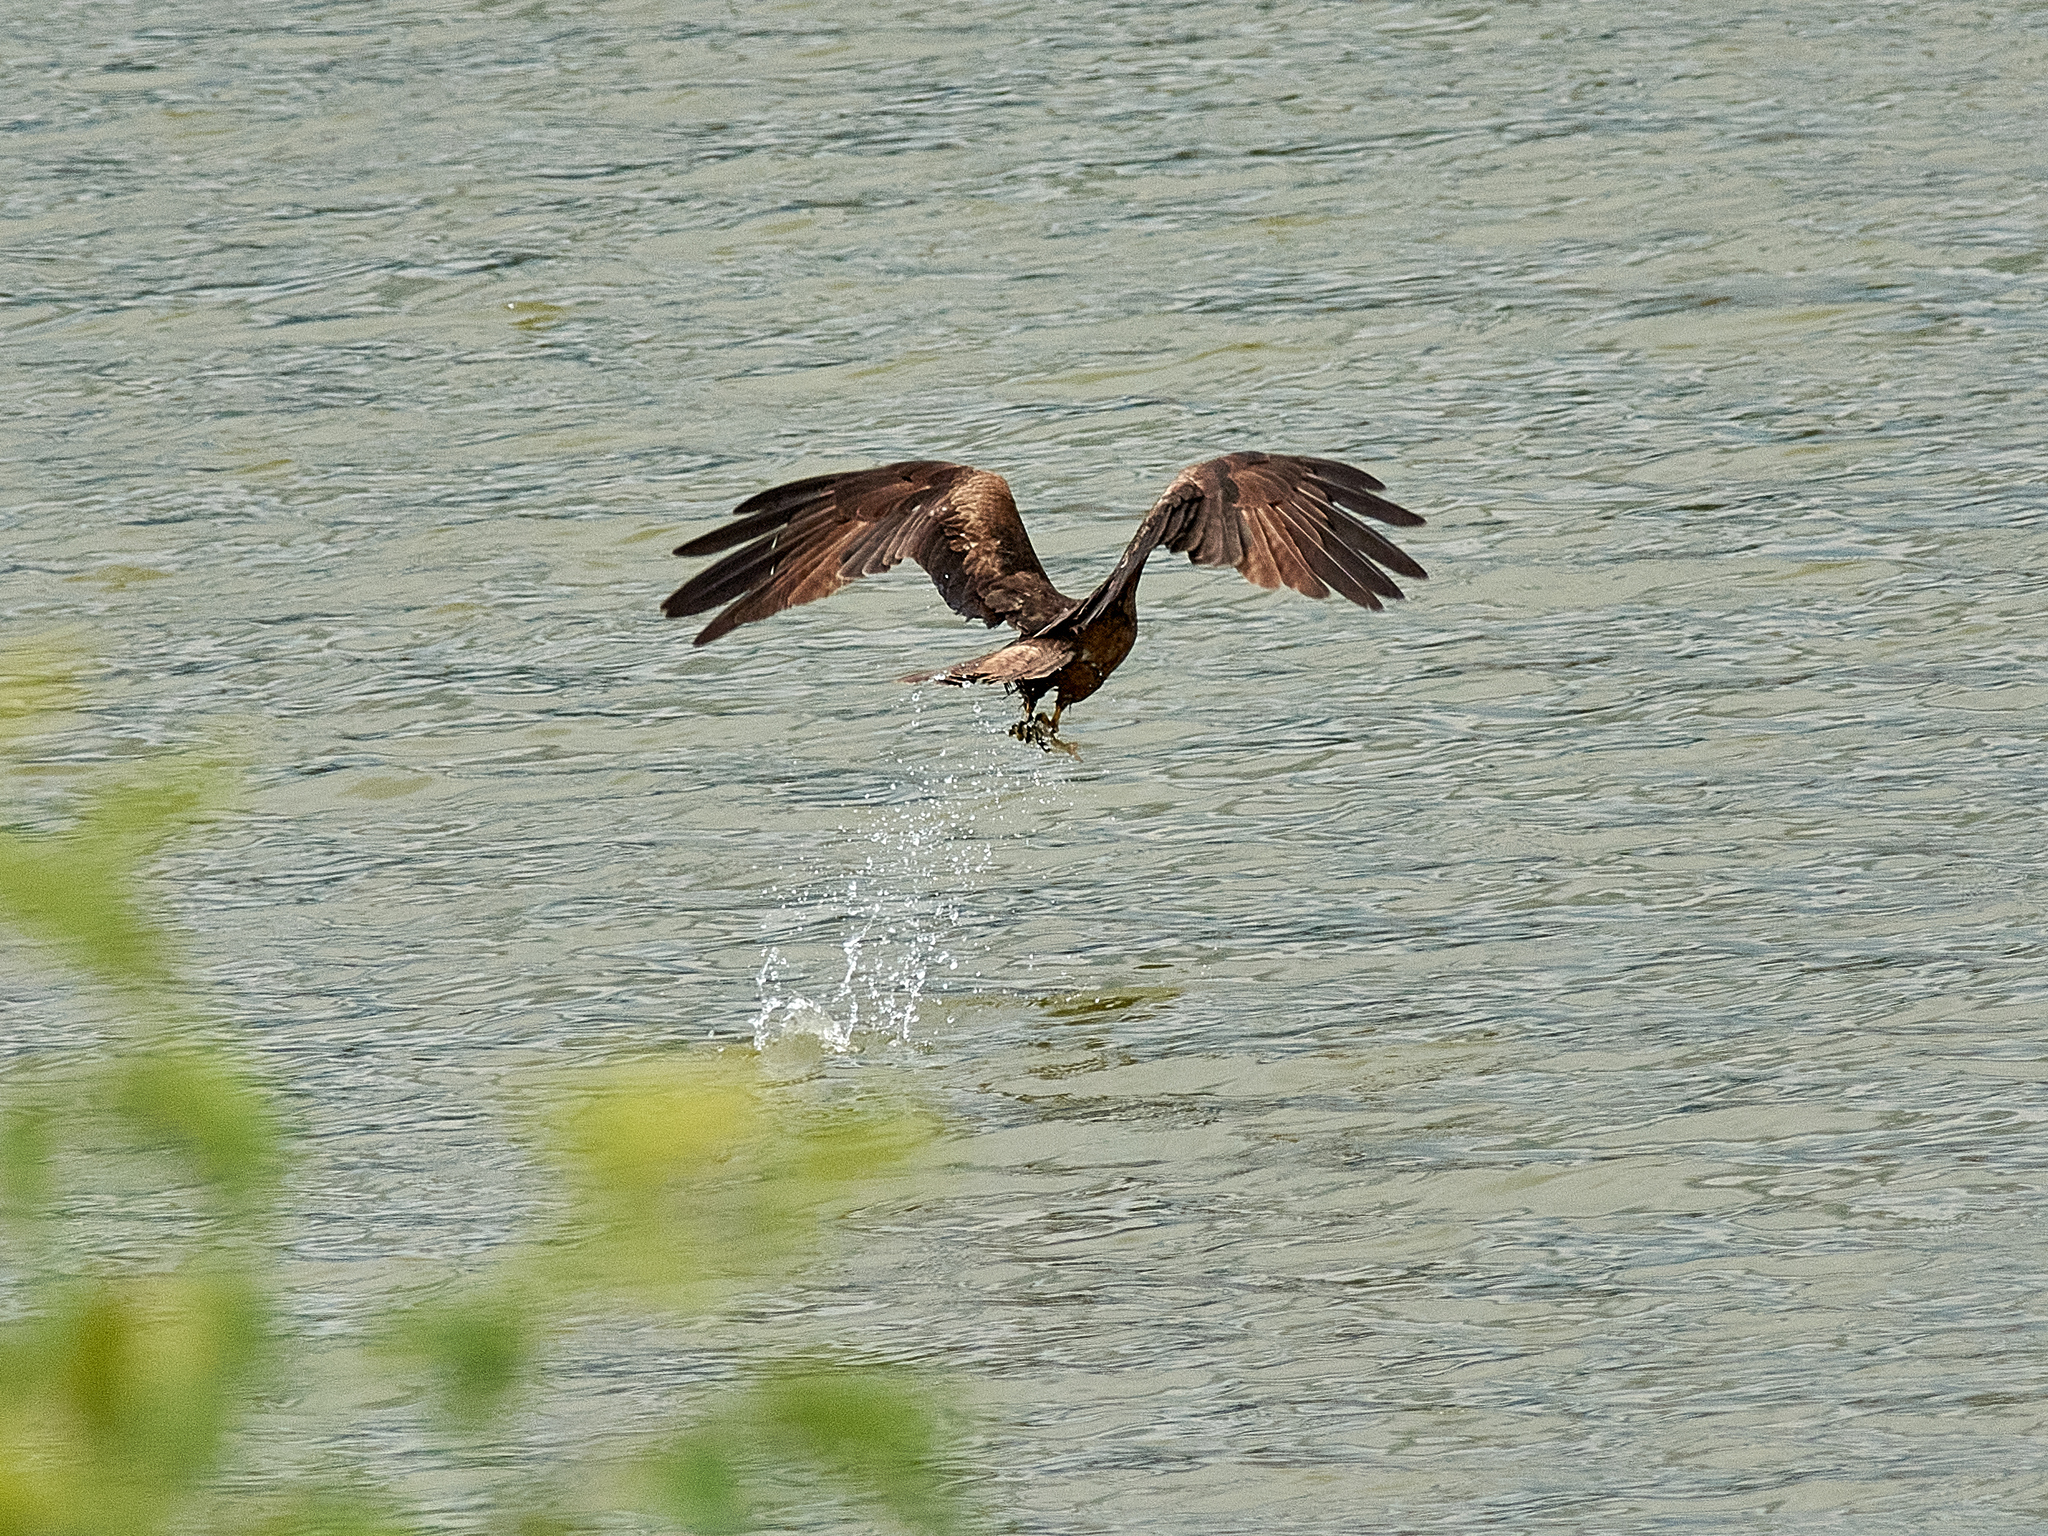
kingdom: Animalia
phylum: Chordata
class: Aves
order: Accipitriformes
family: Accipitridae
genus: Milvus
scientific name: Milvus migrans
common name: Black kite
